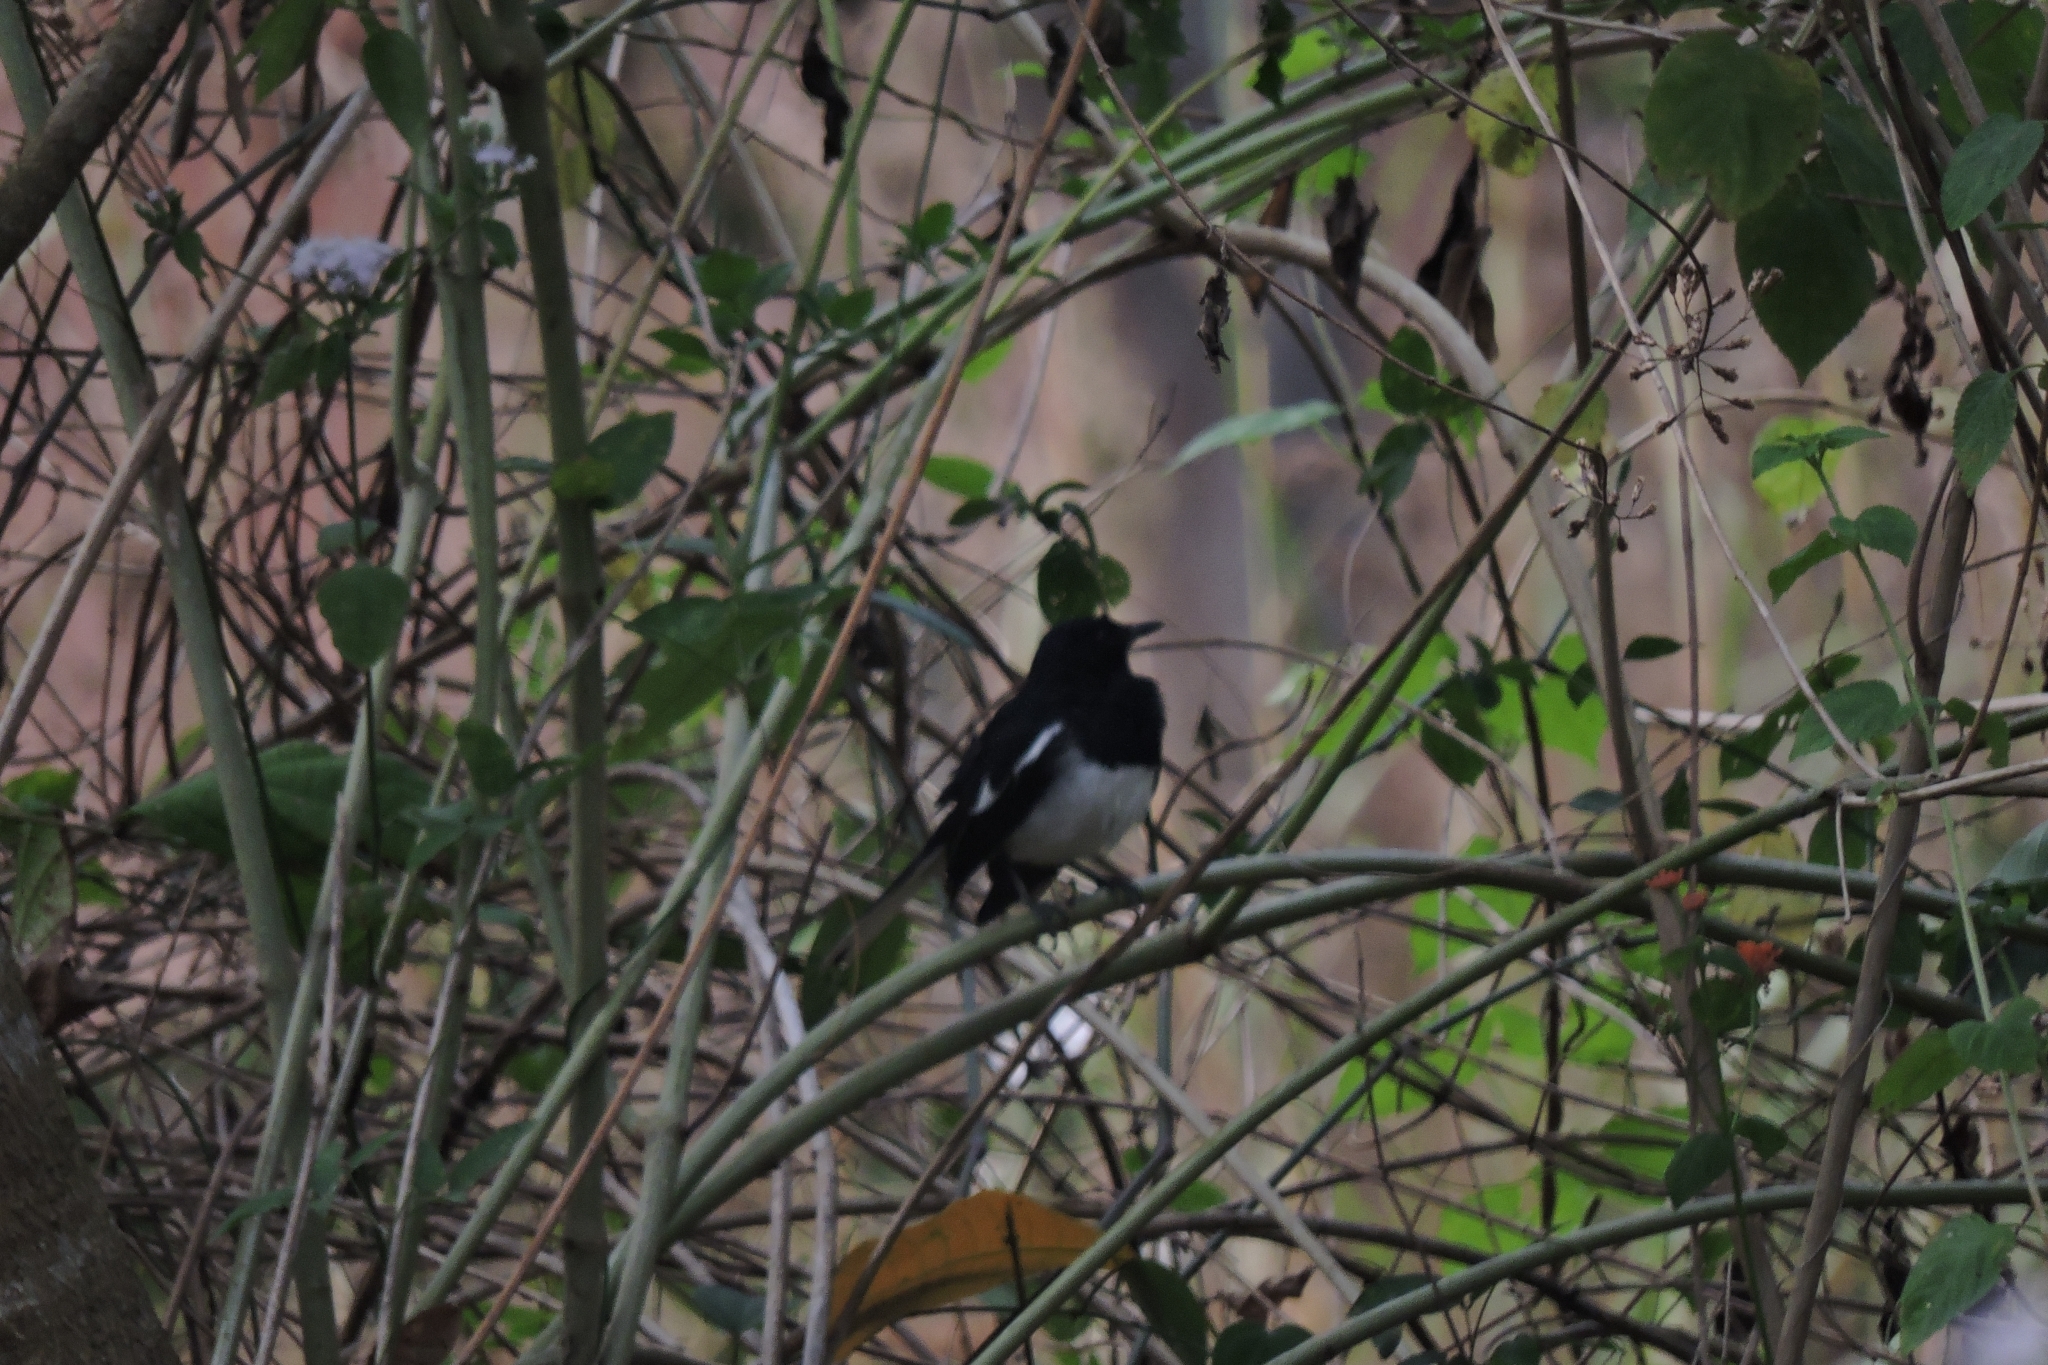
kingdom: Animalia
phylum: Chordata
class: Aves
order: Passeriformes
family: Muscicapidae
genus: Copsychus
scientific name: Copsychus saularis
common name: Oriental magpie-robin
